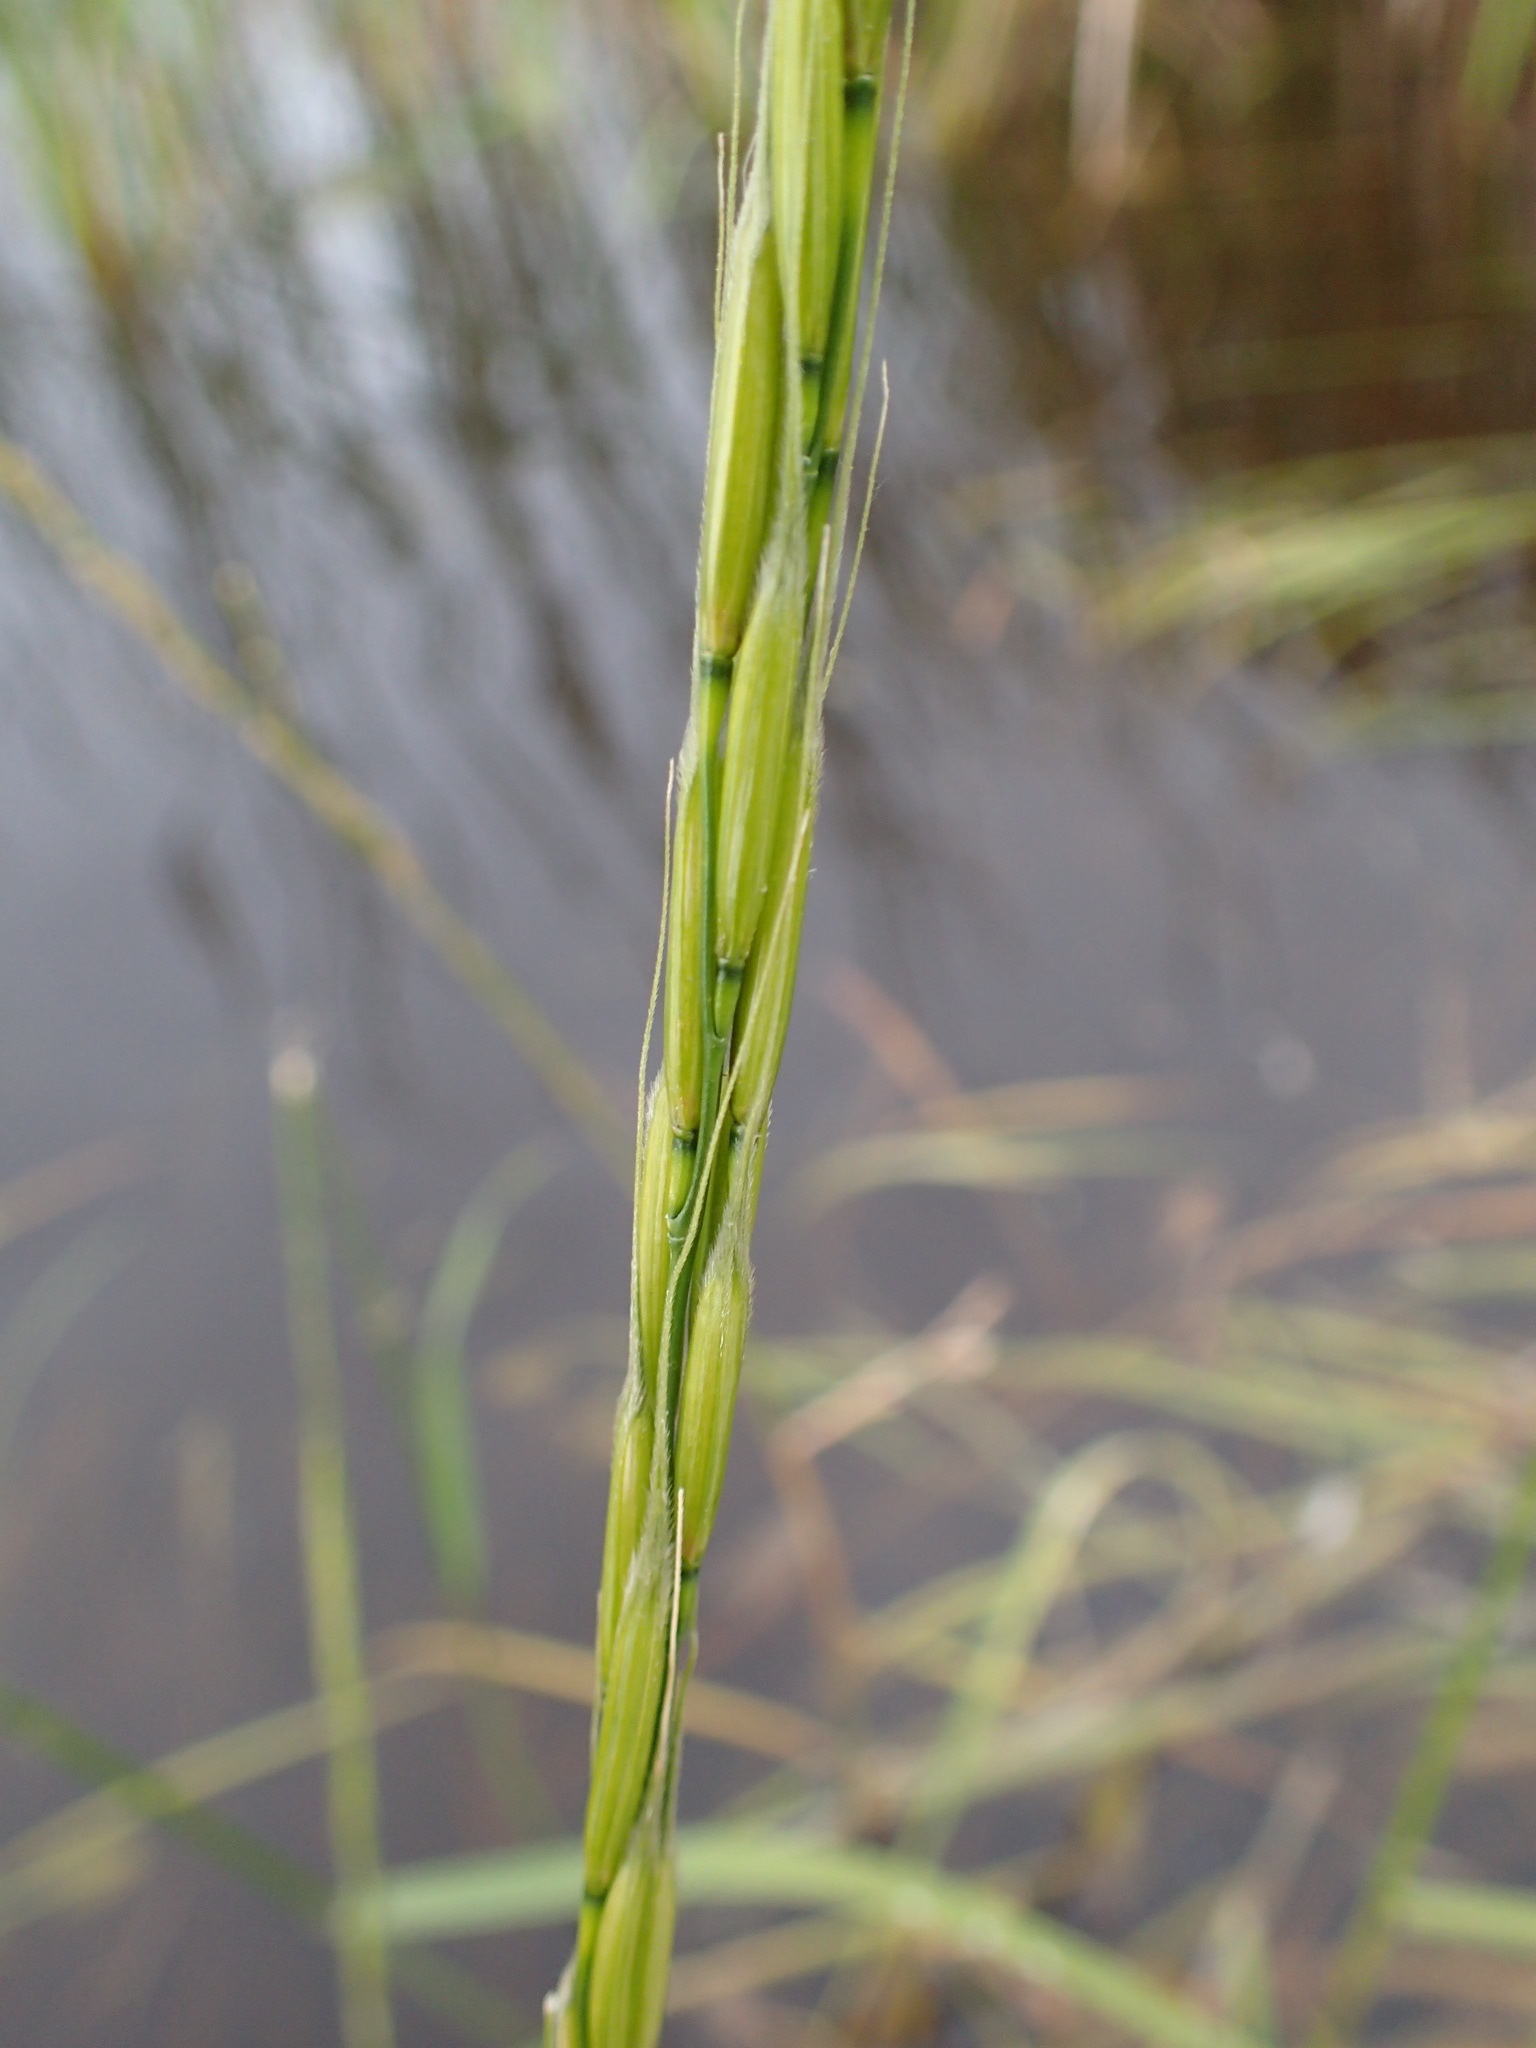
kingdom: Plantae
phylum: Tracheophyta
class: Liliopsida
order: Poales
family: Poaceae
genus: Zizania
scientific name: Zizania palustris
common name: Northern wild rice
